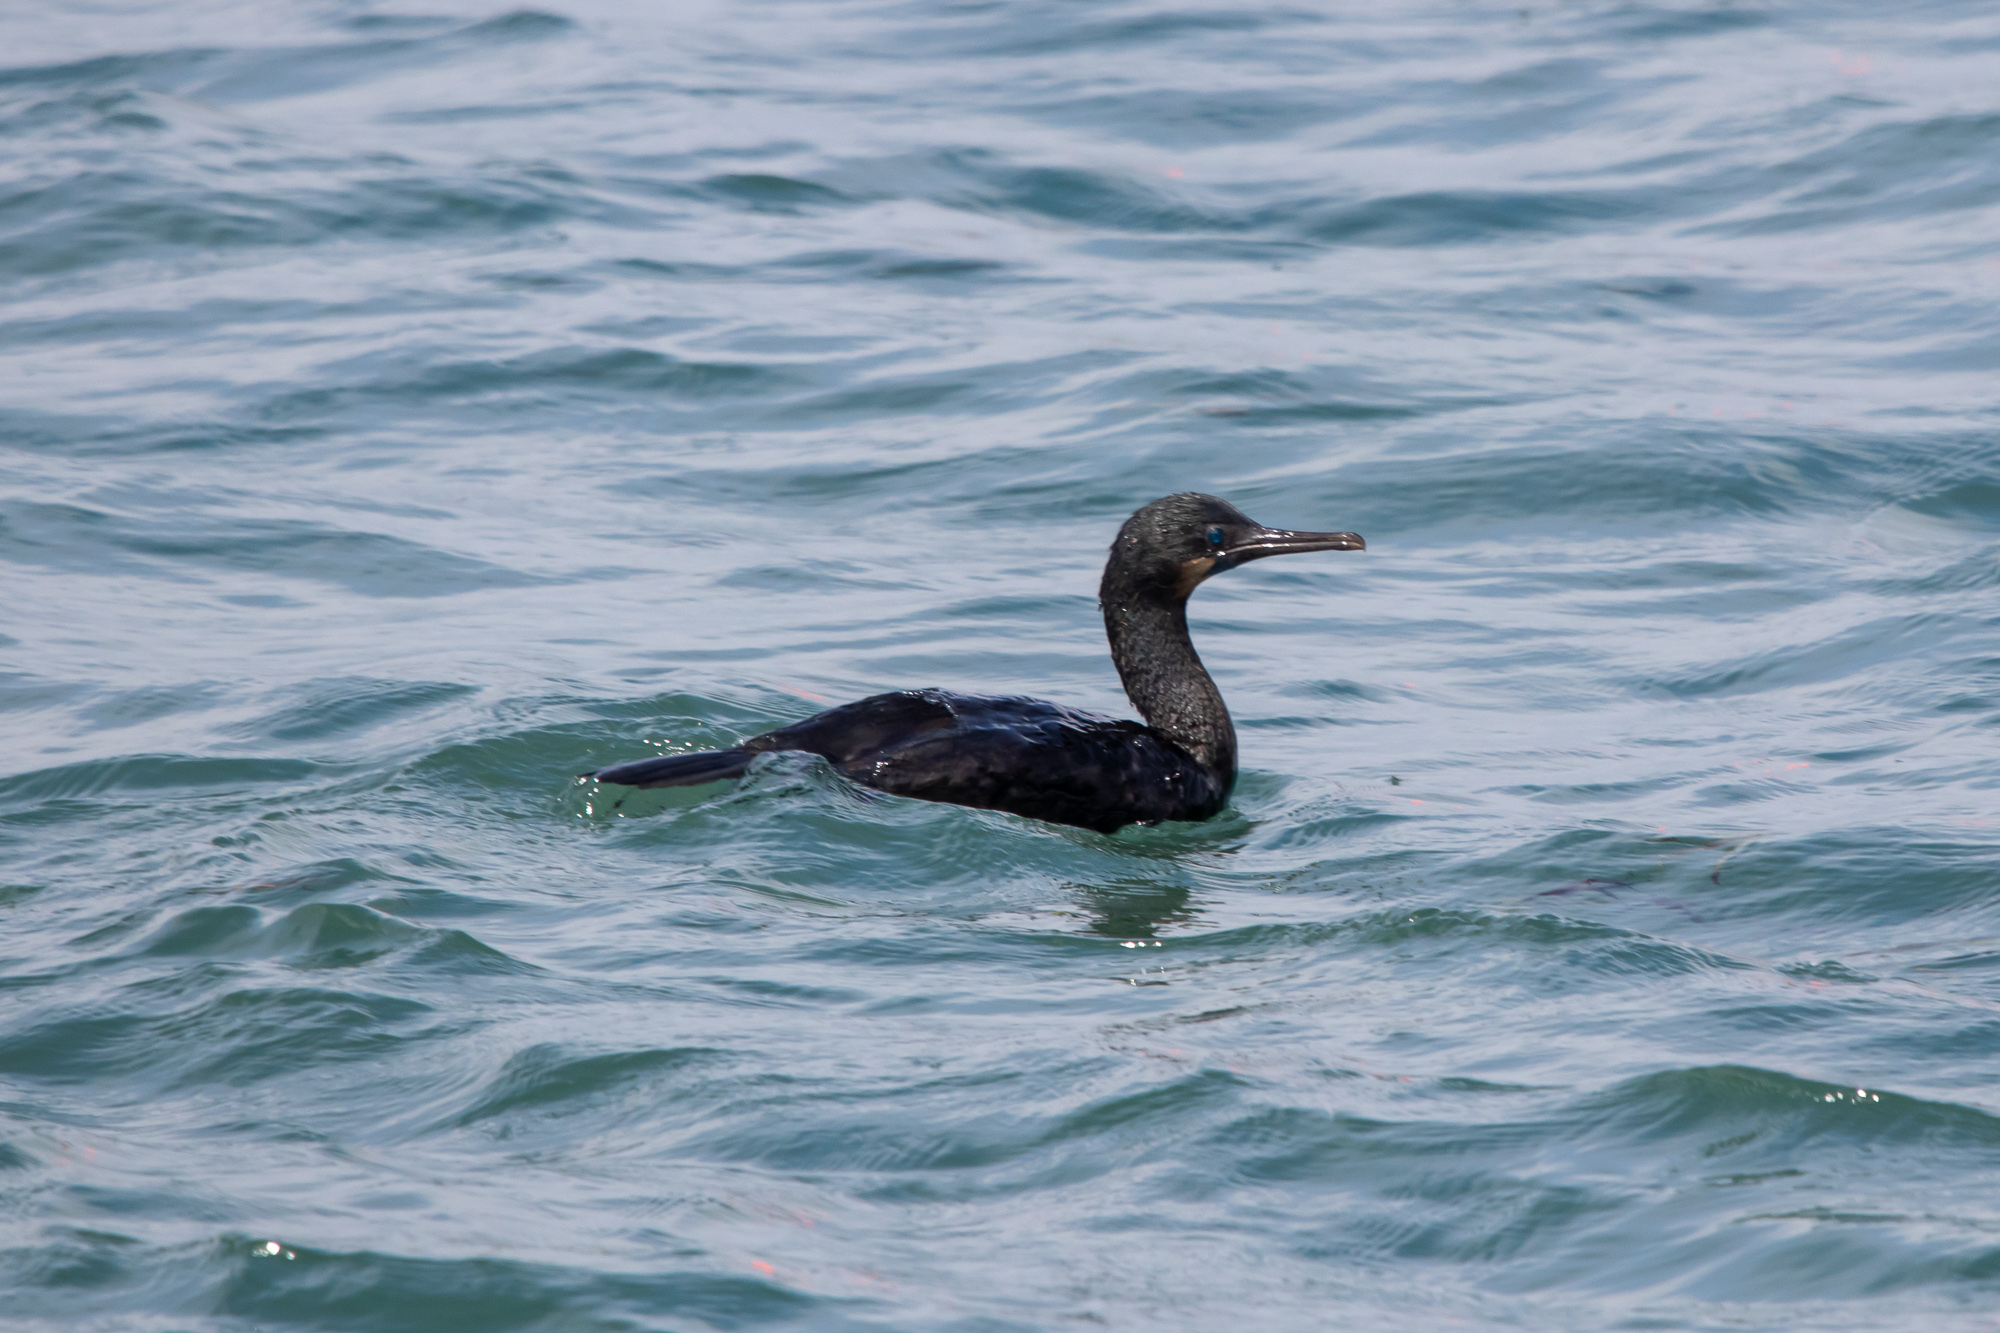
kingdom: Animalia
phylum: Chordata
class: Aves
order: Suliformes
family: Phalacrocoracidae
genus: Urile
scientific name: Urile penicillatus
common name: Brandt's cormorant
